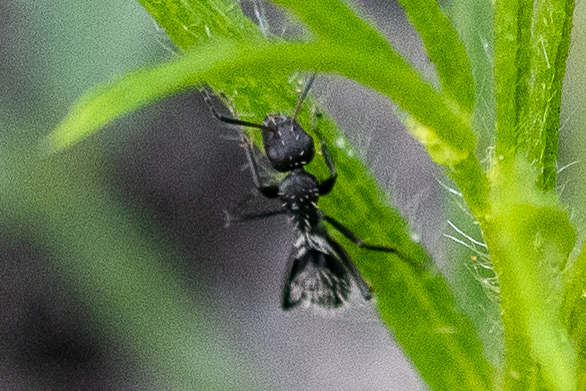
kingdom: Animalia
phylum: Arthropoda
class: Insecta
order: Hymenoptera
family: Formicidae
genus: Camponotus
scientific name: Camponotus niveosetosus
